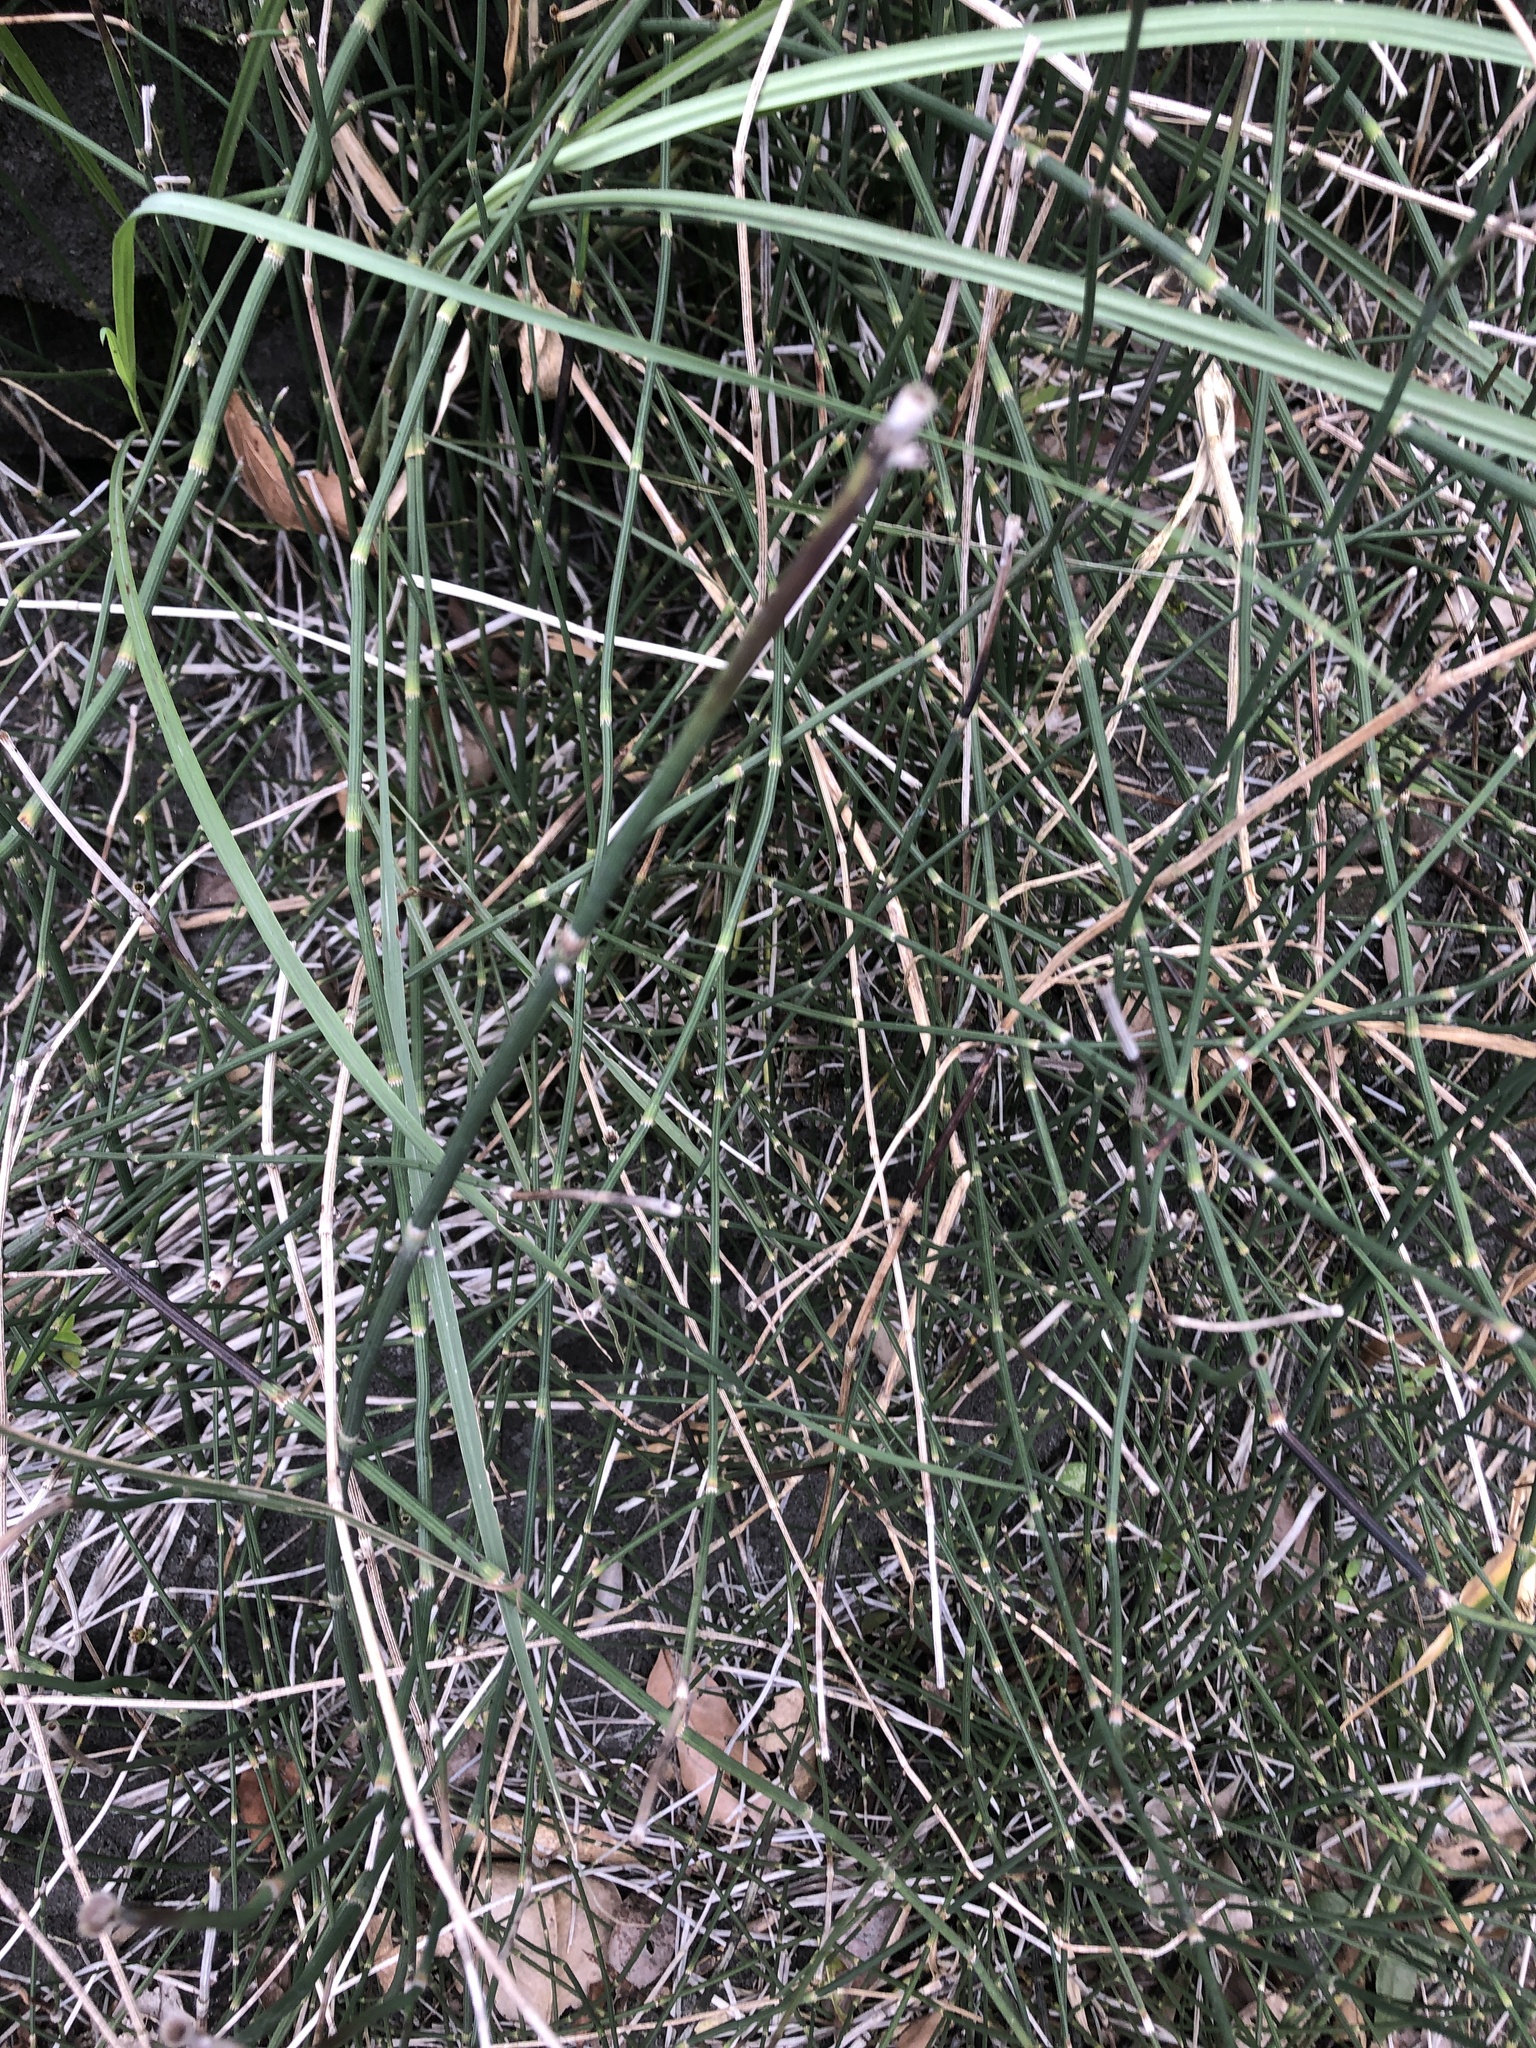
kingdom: Plantae
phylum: Tracheophyta
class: Polypodiopsida
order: Equisetales
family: Equisetaceae
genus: Equisetum
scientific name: Equisetum ramosissimum
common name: Branched horsetail
